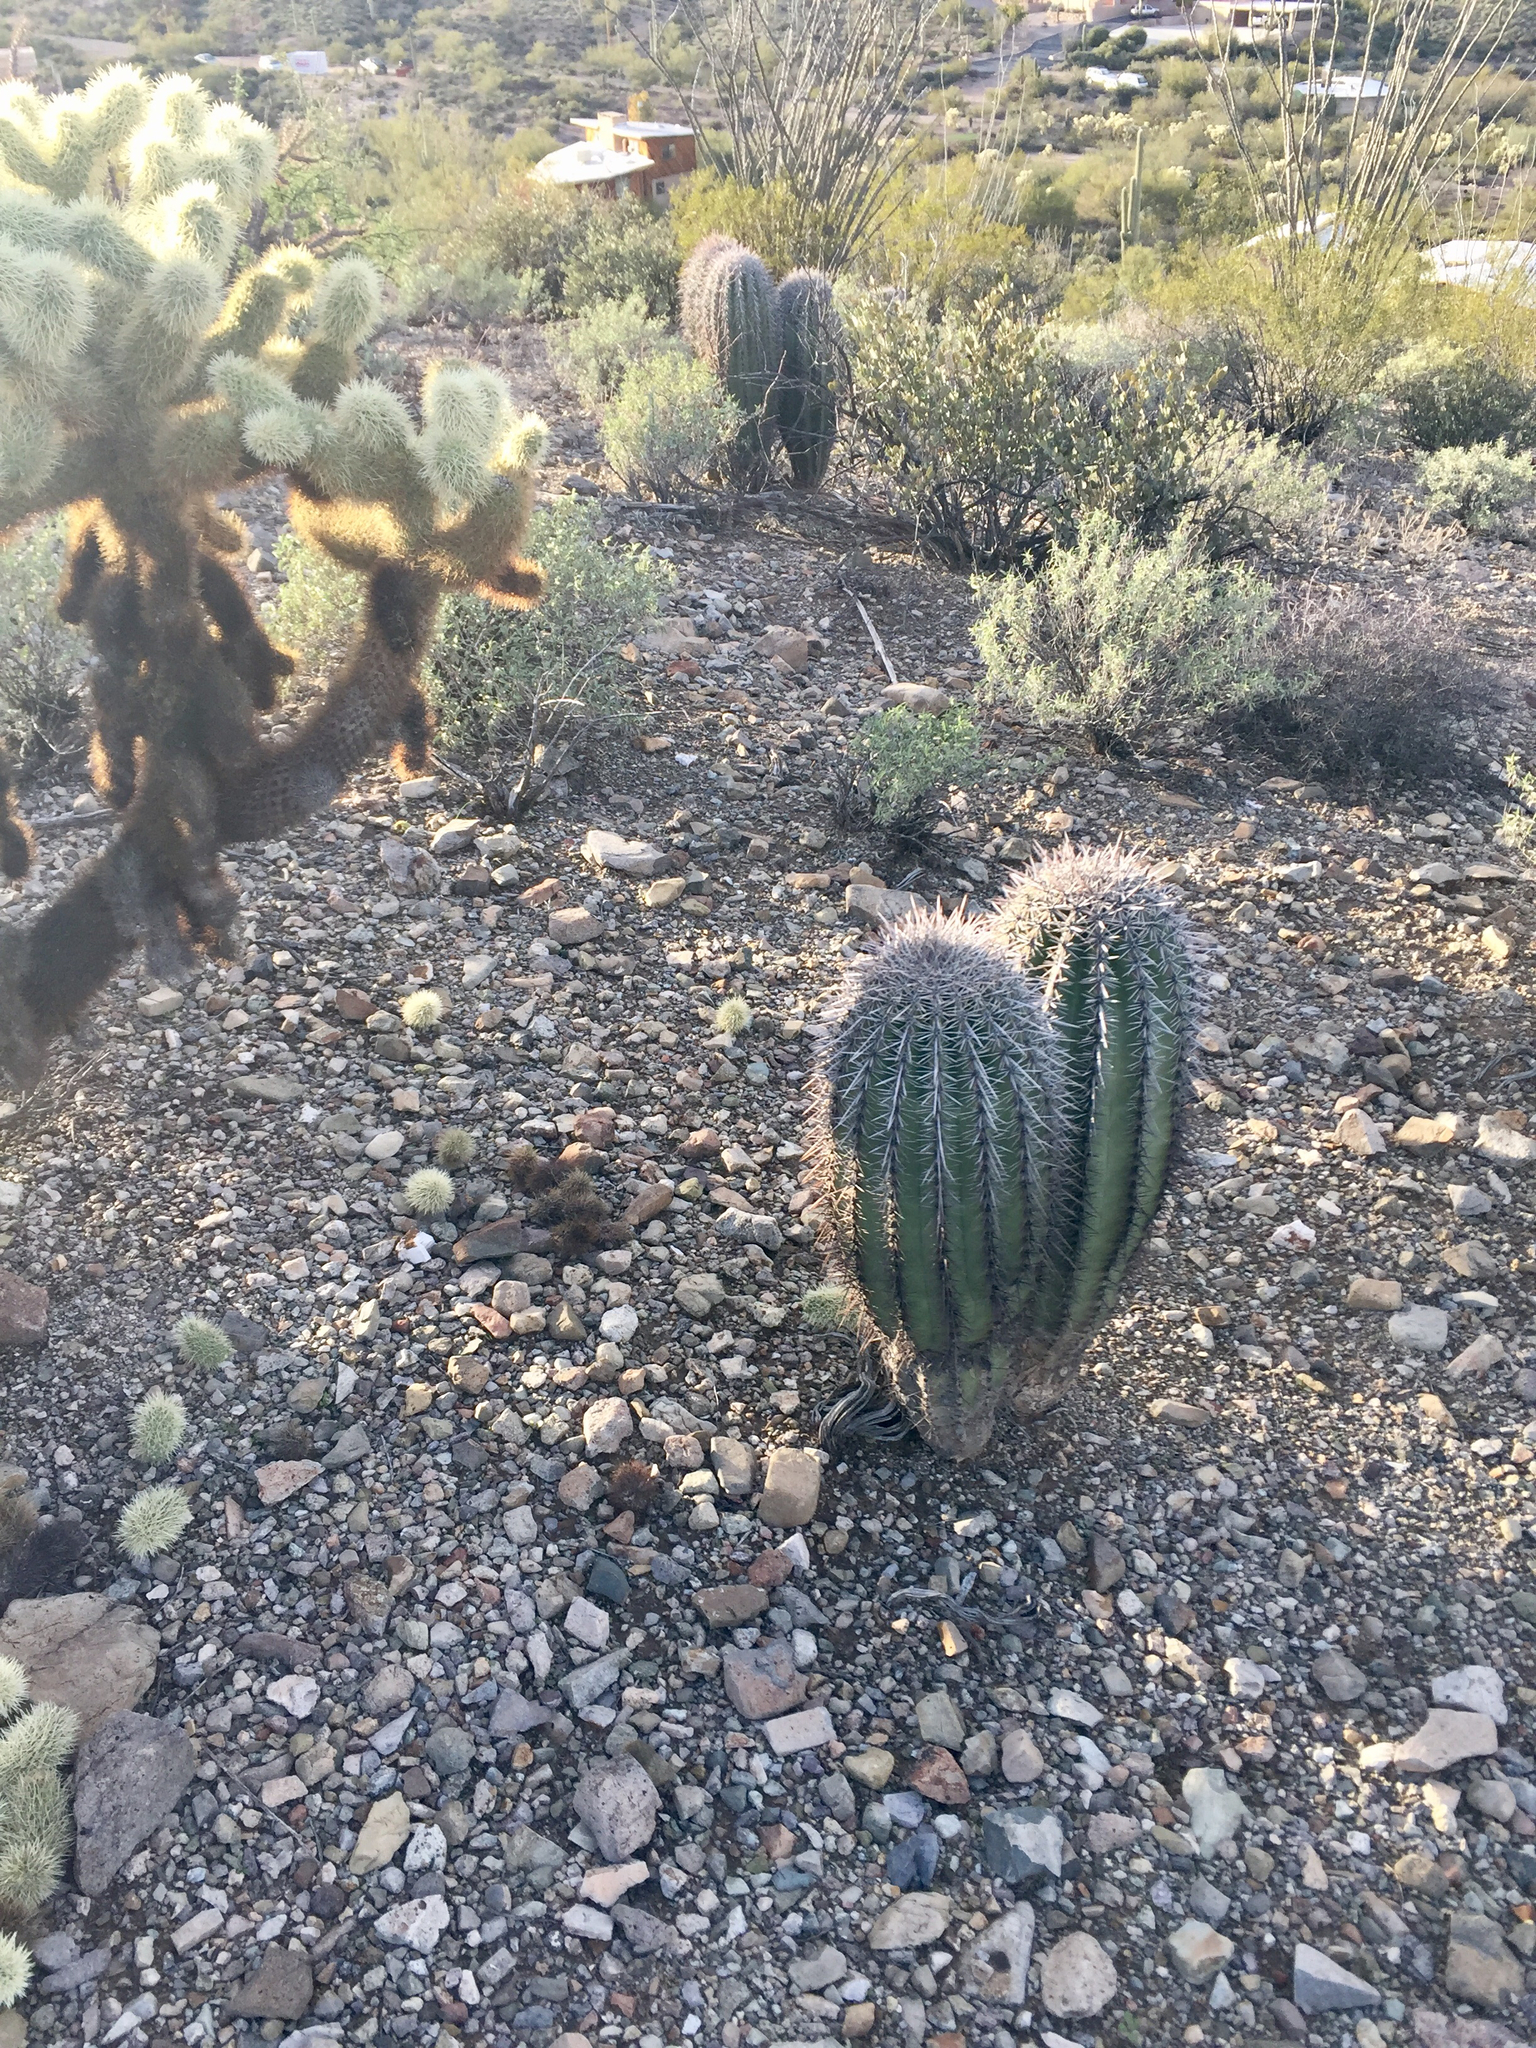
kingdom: Plantae
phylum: Tracheophyta
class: Magnoliopsida
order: Caryophyllales
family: Cactaceae
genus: Carnegiea
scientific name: Carnegiea gigantea
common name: Saguaro
